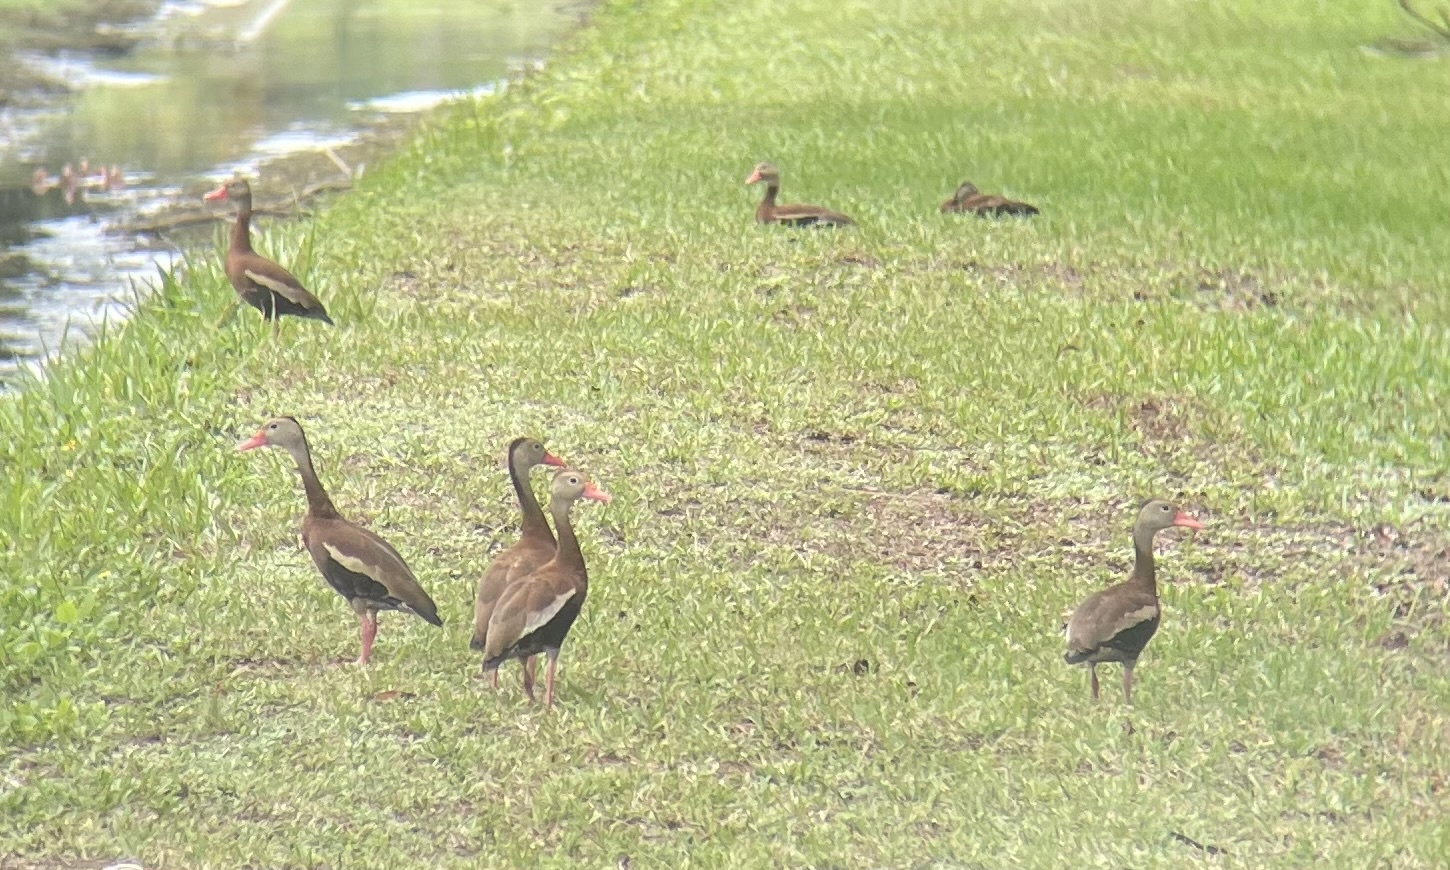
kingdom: Animalia
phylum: Chordata
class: Aves
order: Anseriformes
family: Anatidae
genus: Dendrocygna
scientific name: Dendrocygna autumnalis
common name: Black-bellied whistling duck
